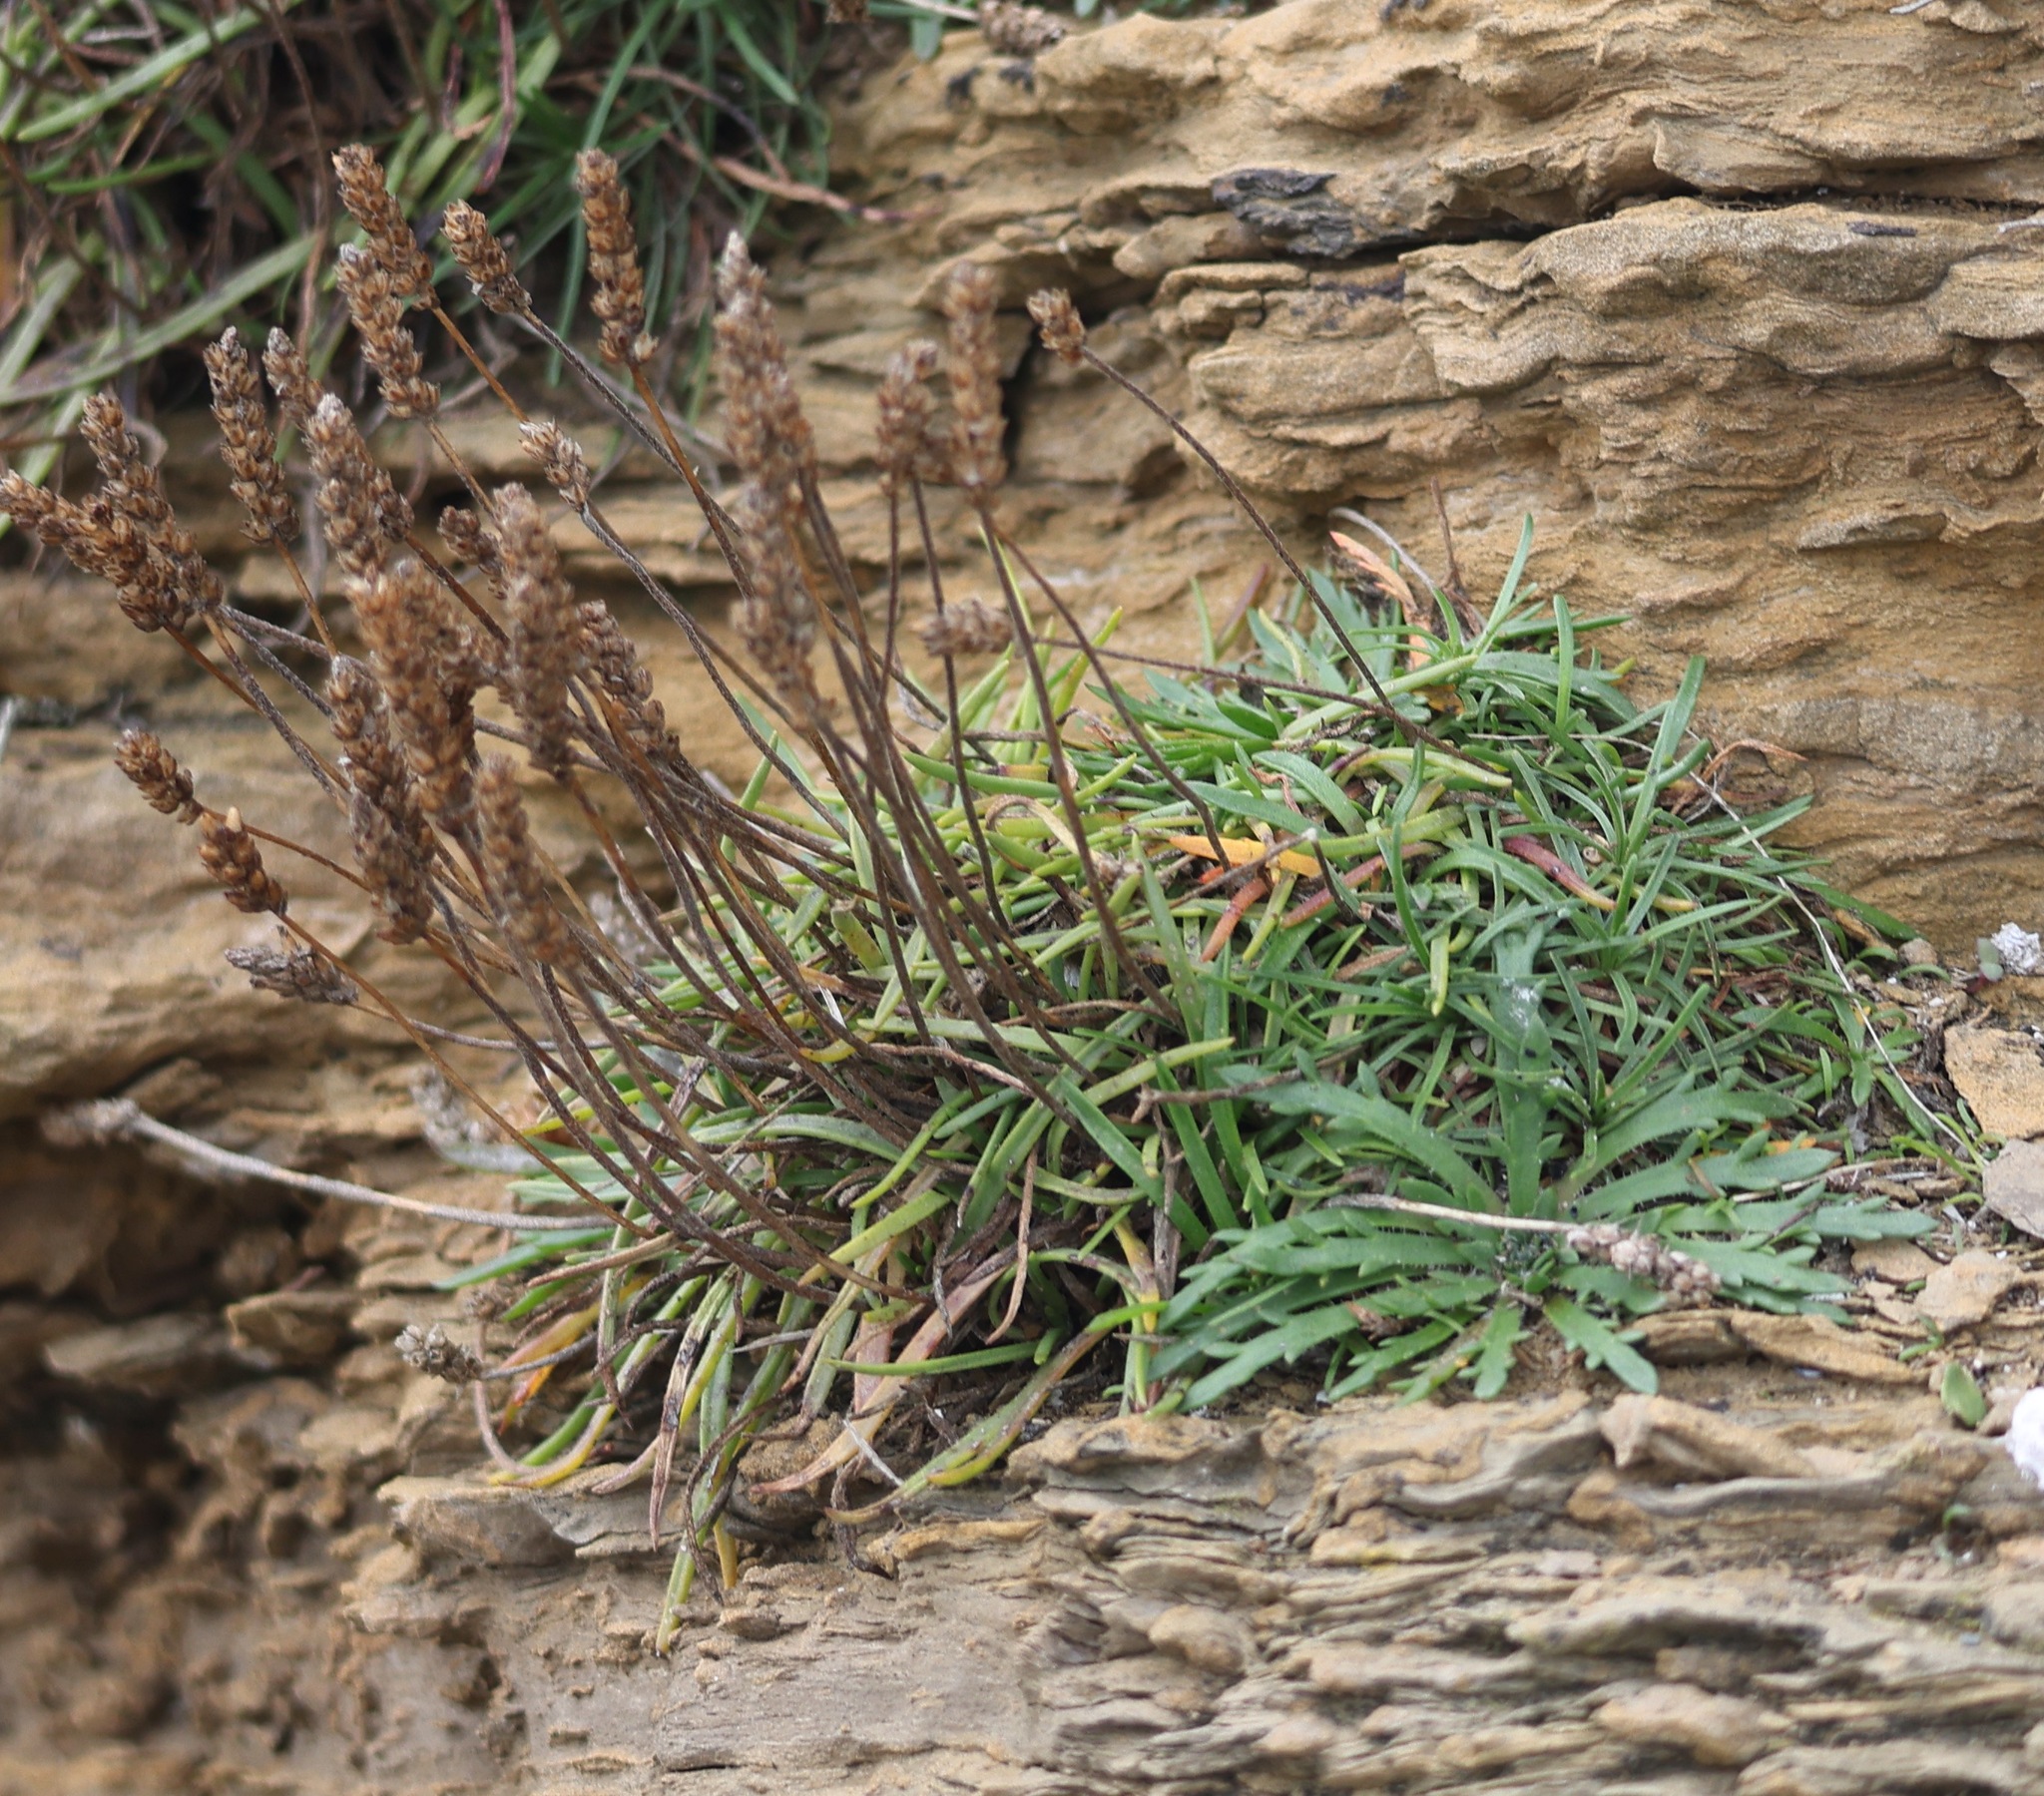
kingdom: Plantae
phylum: Tracheophyta
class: Magnoliopsida
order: Lamiales
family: Plantaginaceae
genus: Plantago
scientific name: Plantago coronopus
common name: Buck's-horn plantain
